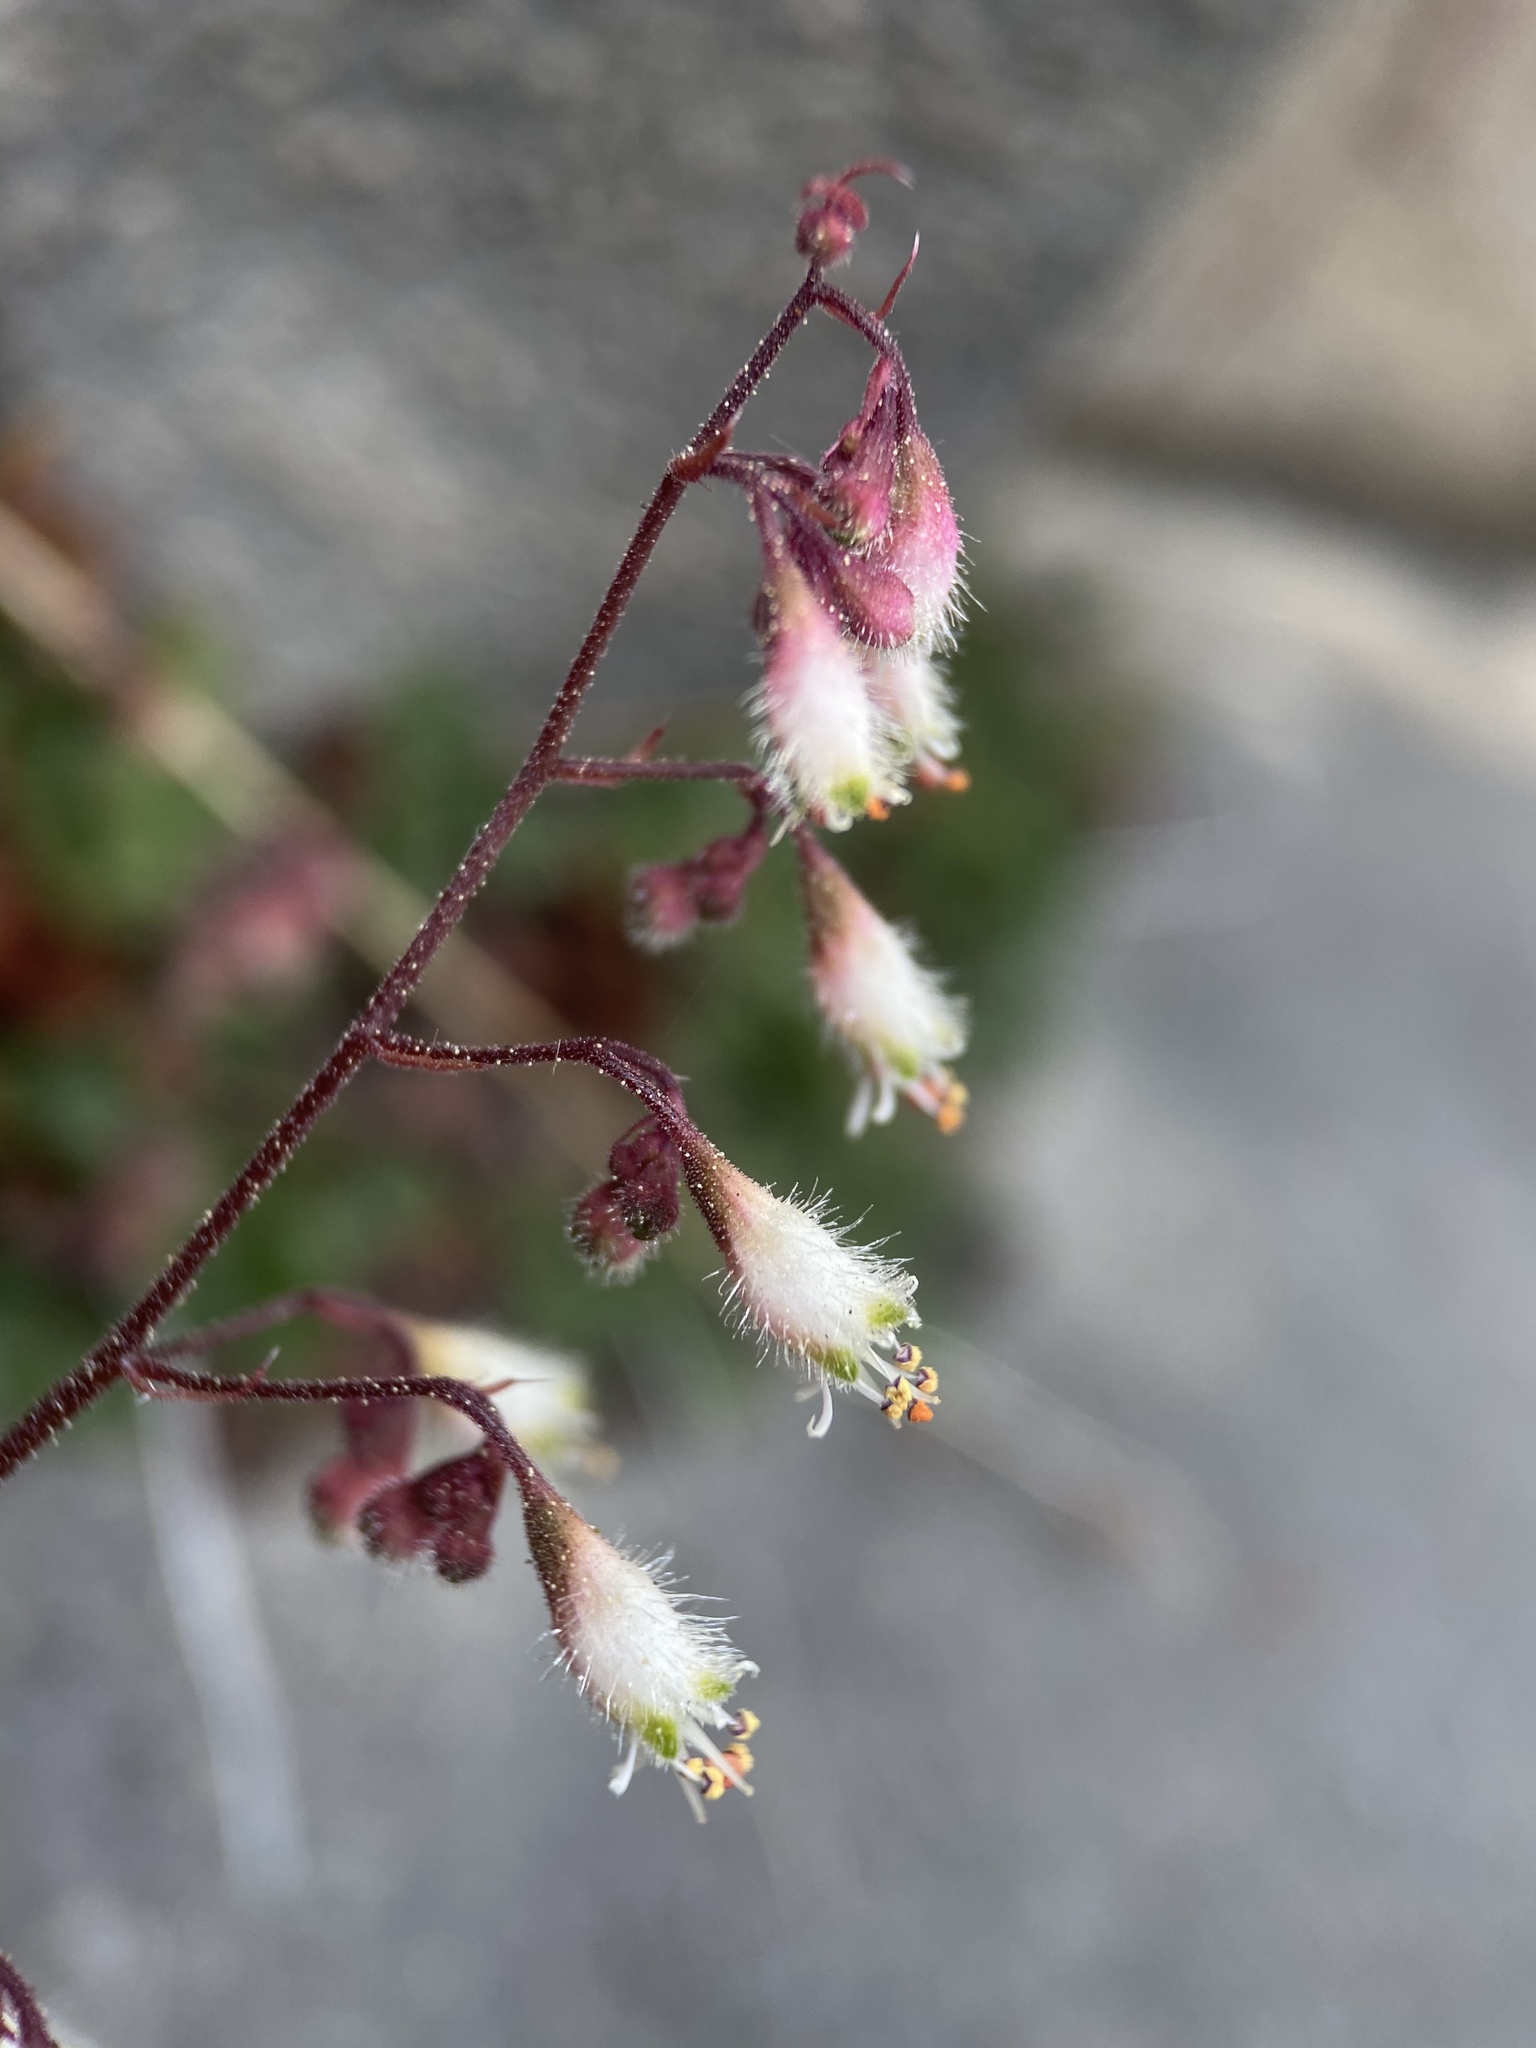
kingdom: Plantae
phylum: Tracheophyta
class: Magnoliopsida
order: Saxifragales
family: Saxifragaceae
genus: Heuchera
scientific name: Heuchera rubescens
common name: Jack-o'the-rocks
